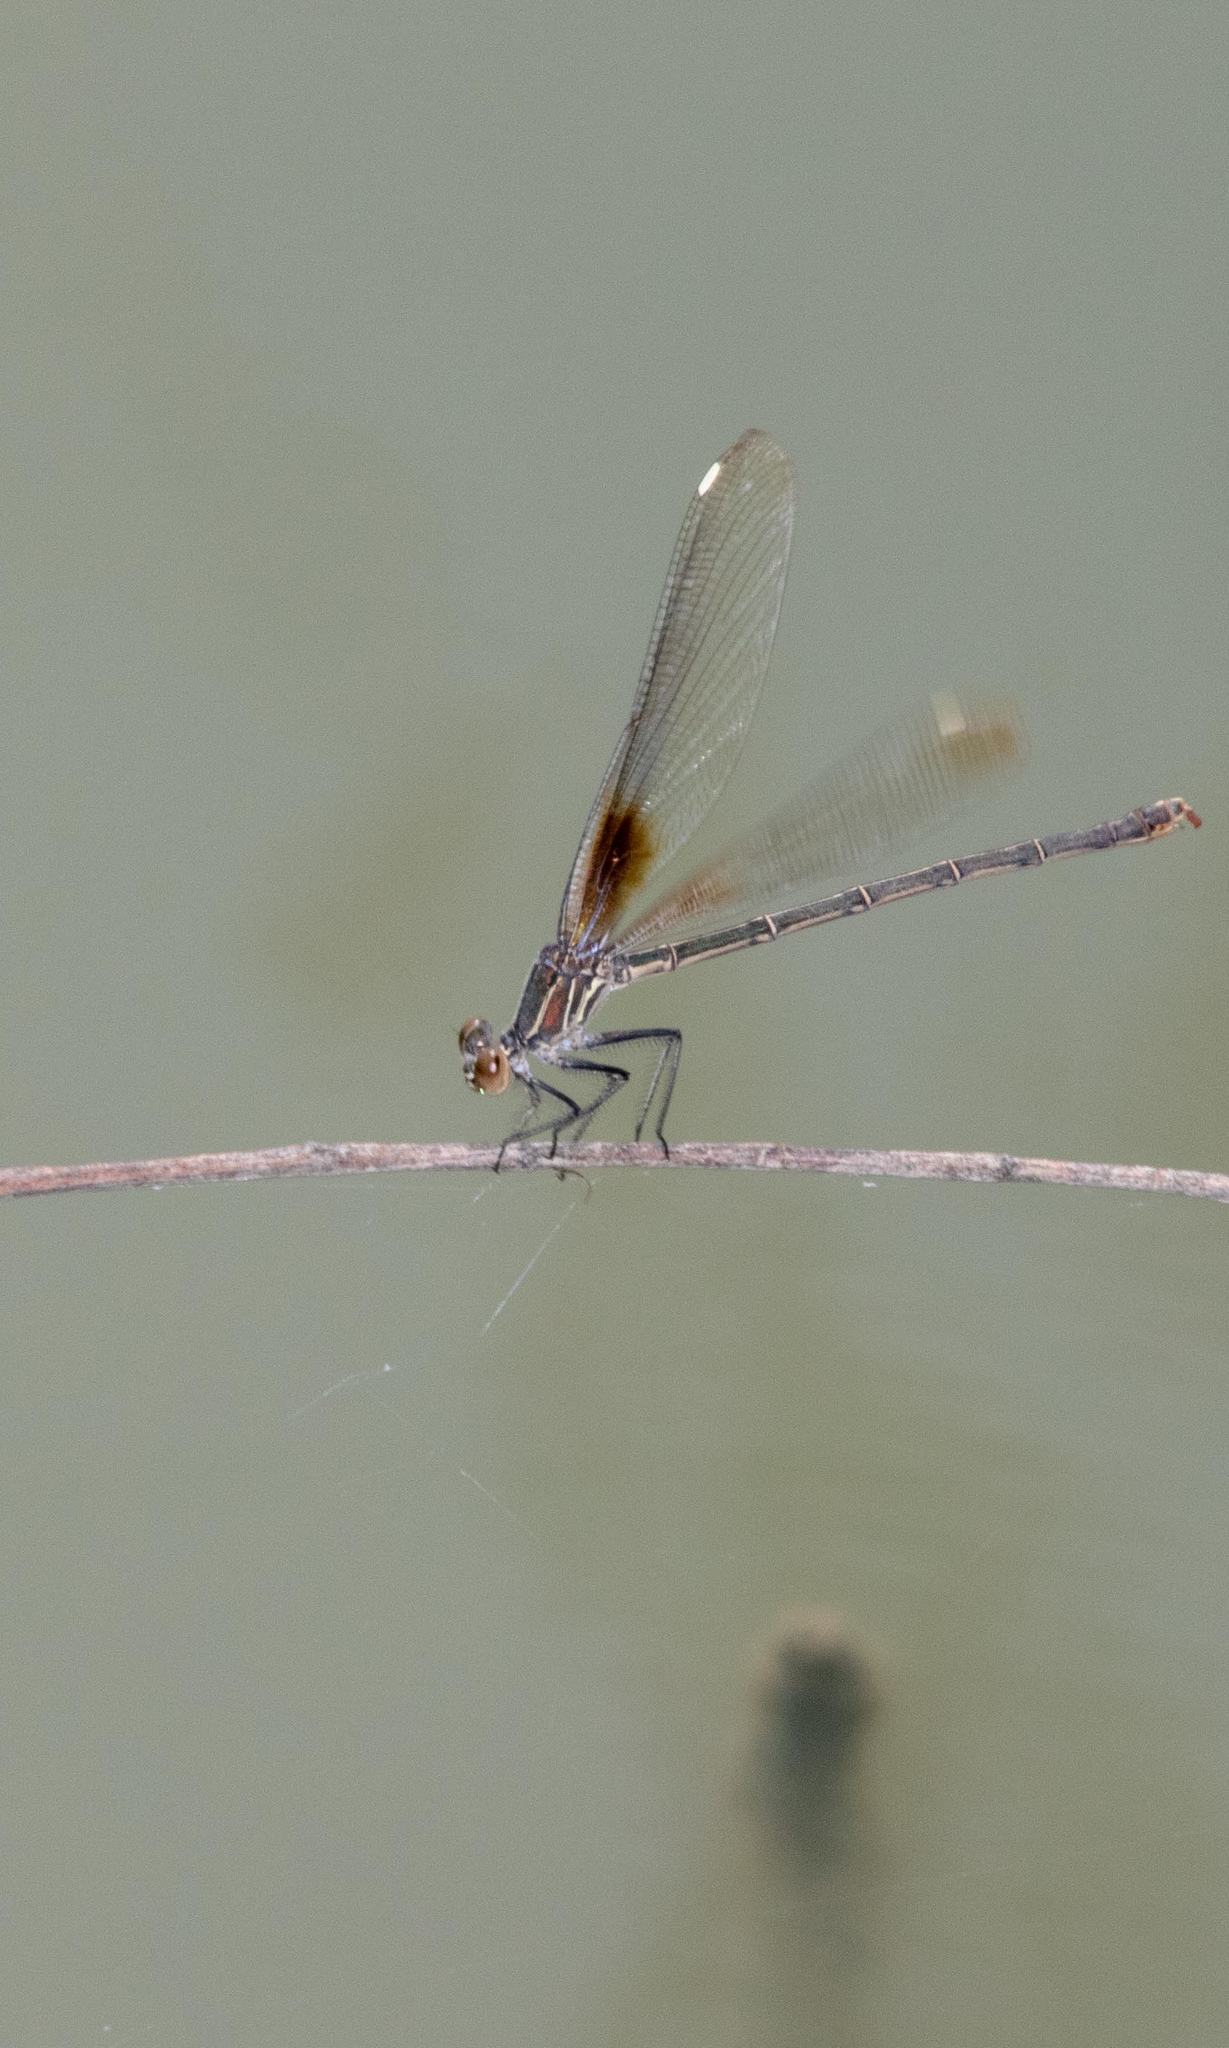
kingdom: Animalia
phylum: Arthropoda
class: Insecta
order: Odonata
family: Calopterygidae
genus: Hetaerina
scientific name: Hetaerina americana
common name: American rubyspot
